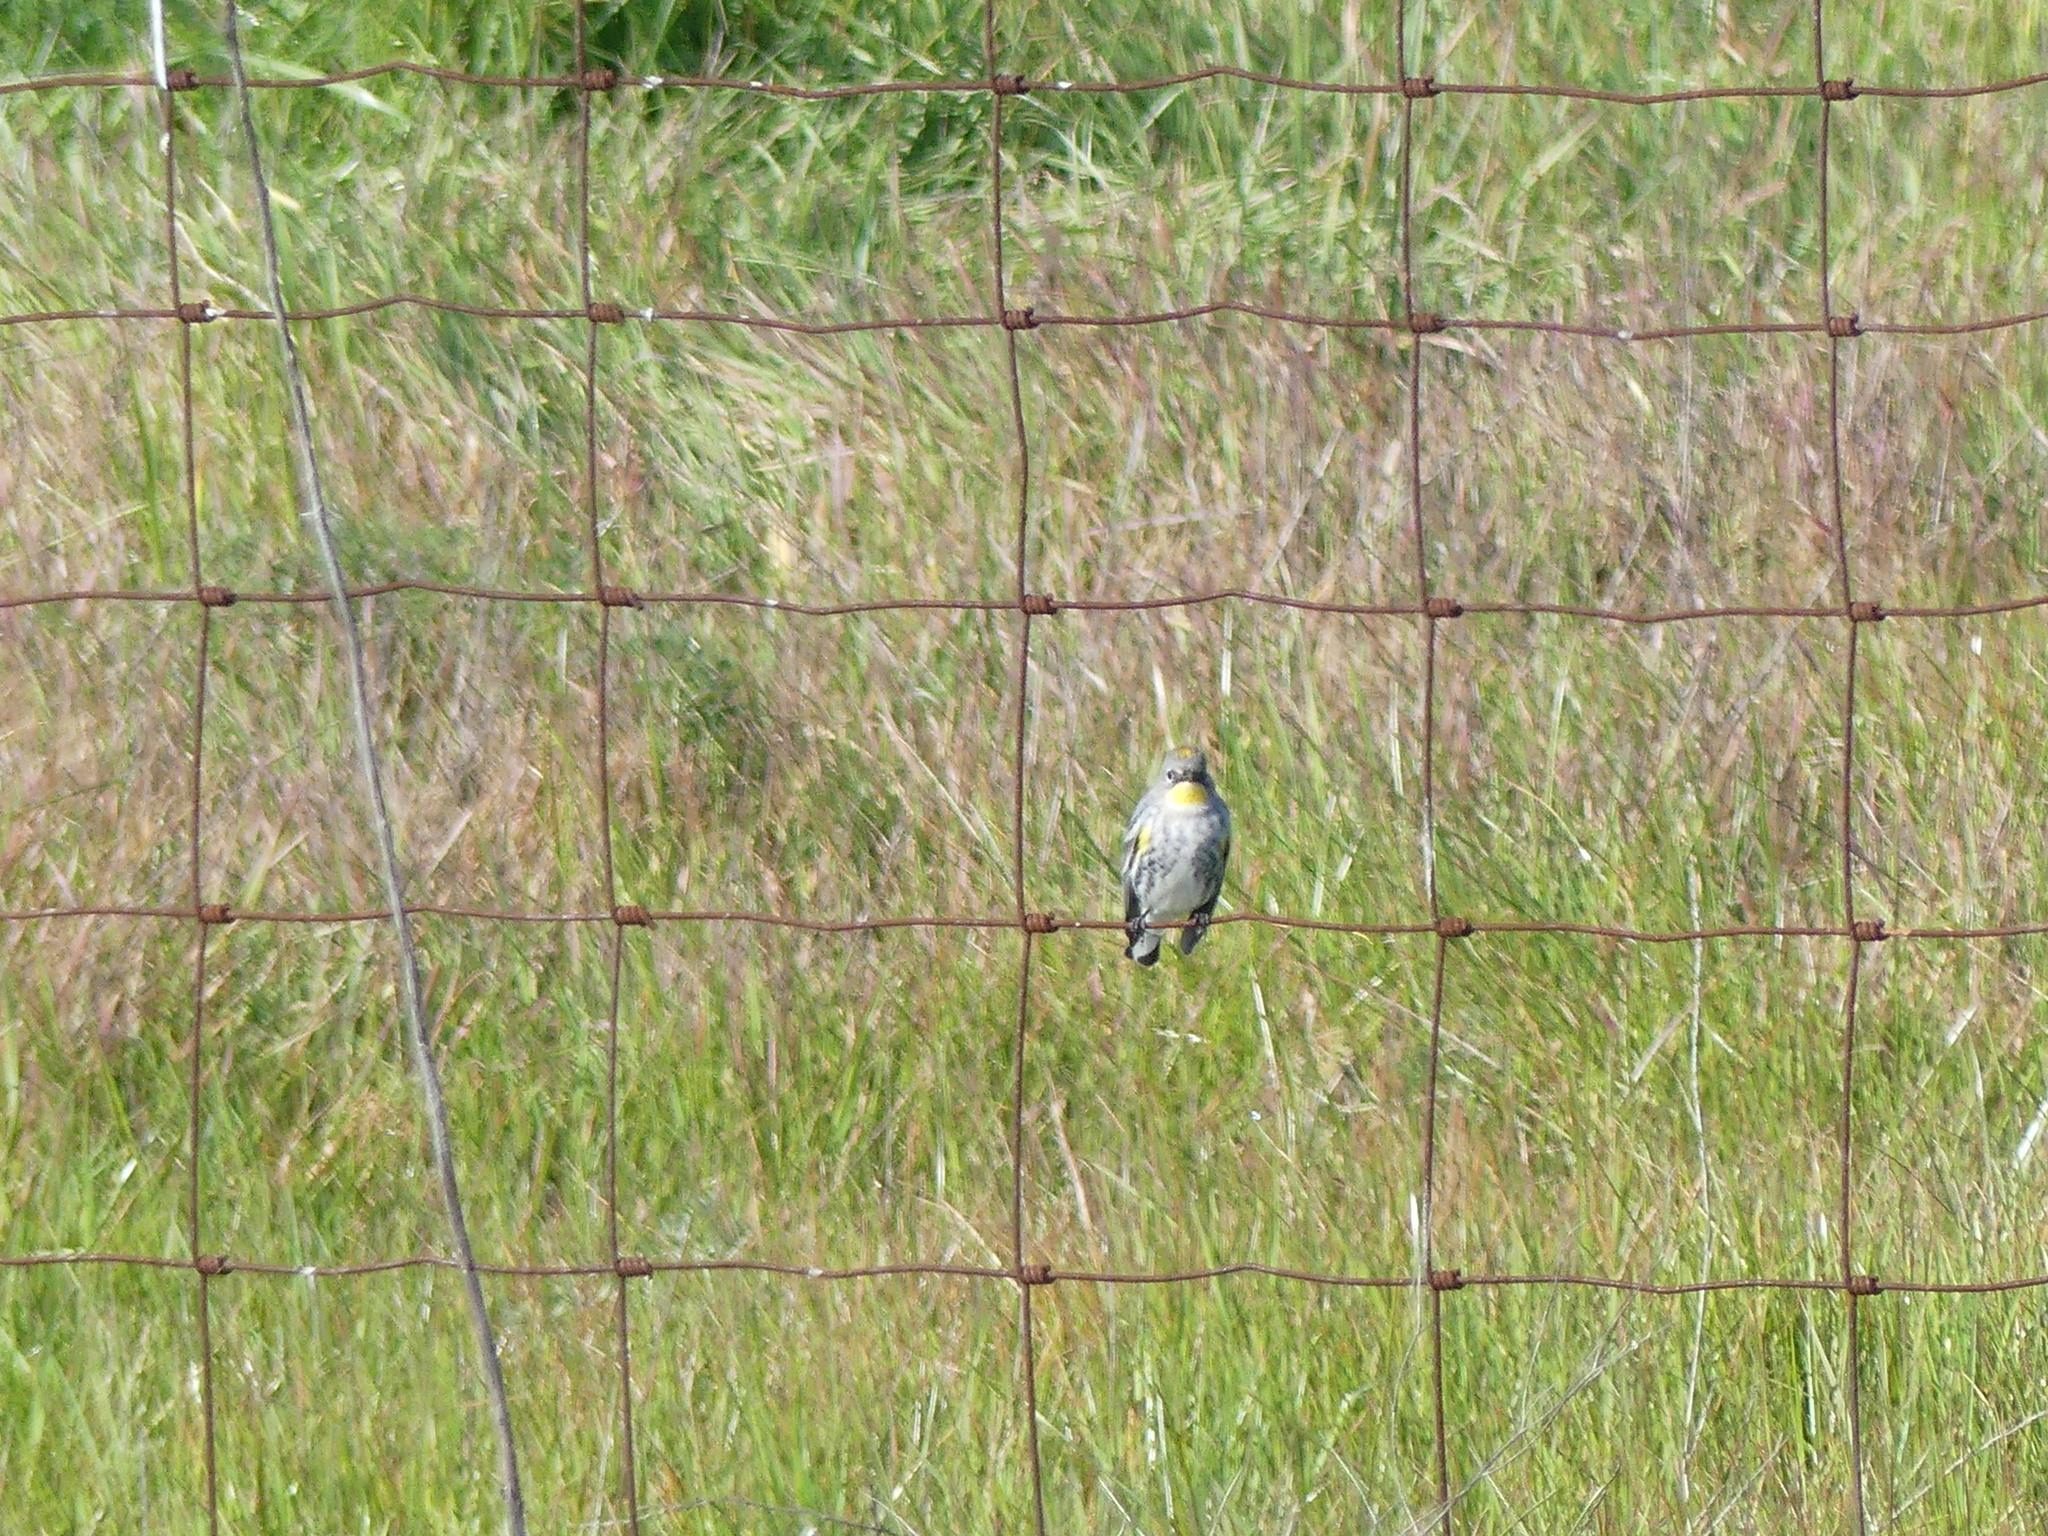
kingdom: Animalia
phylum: Chordata
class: Aves
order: Passeriformes
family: Parulidae
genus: Setophaga
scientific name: Setophaga auduboni
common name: Audubon's warbler
